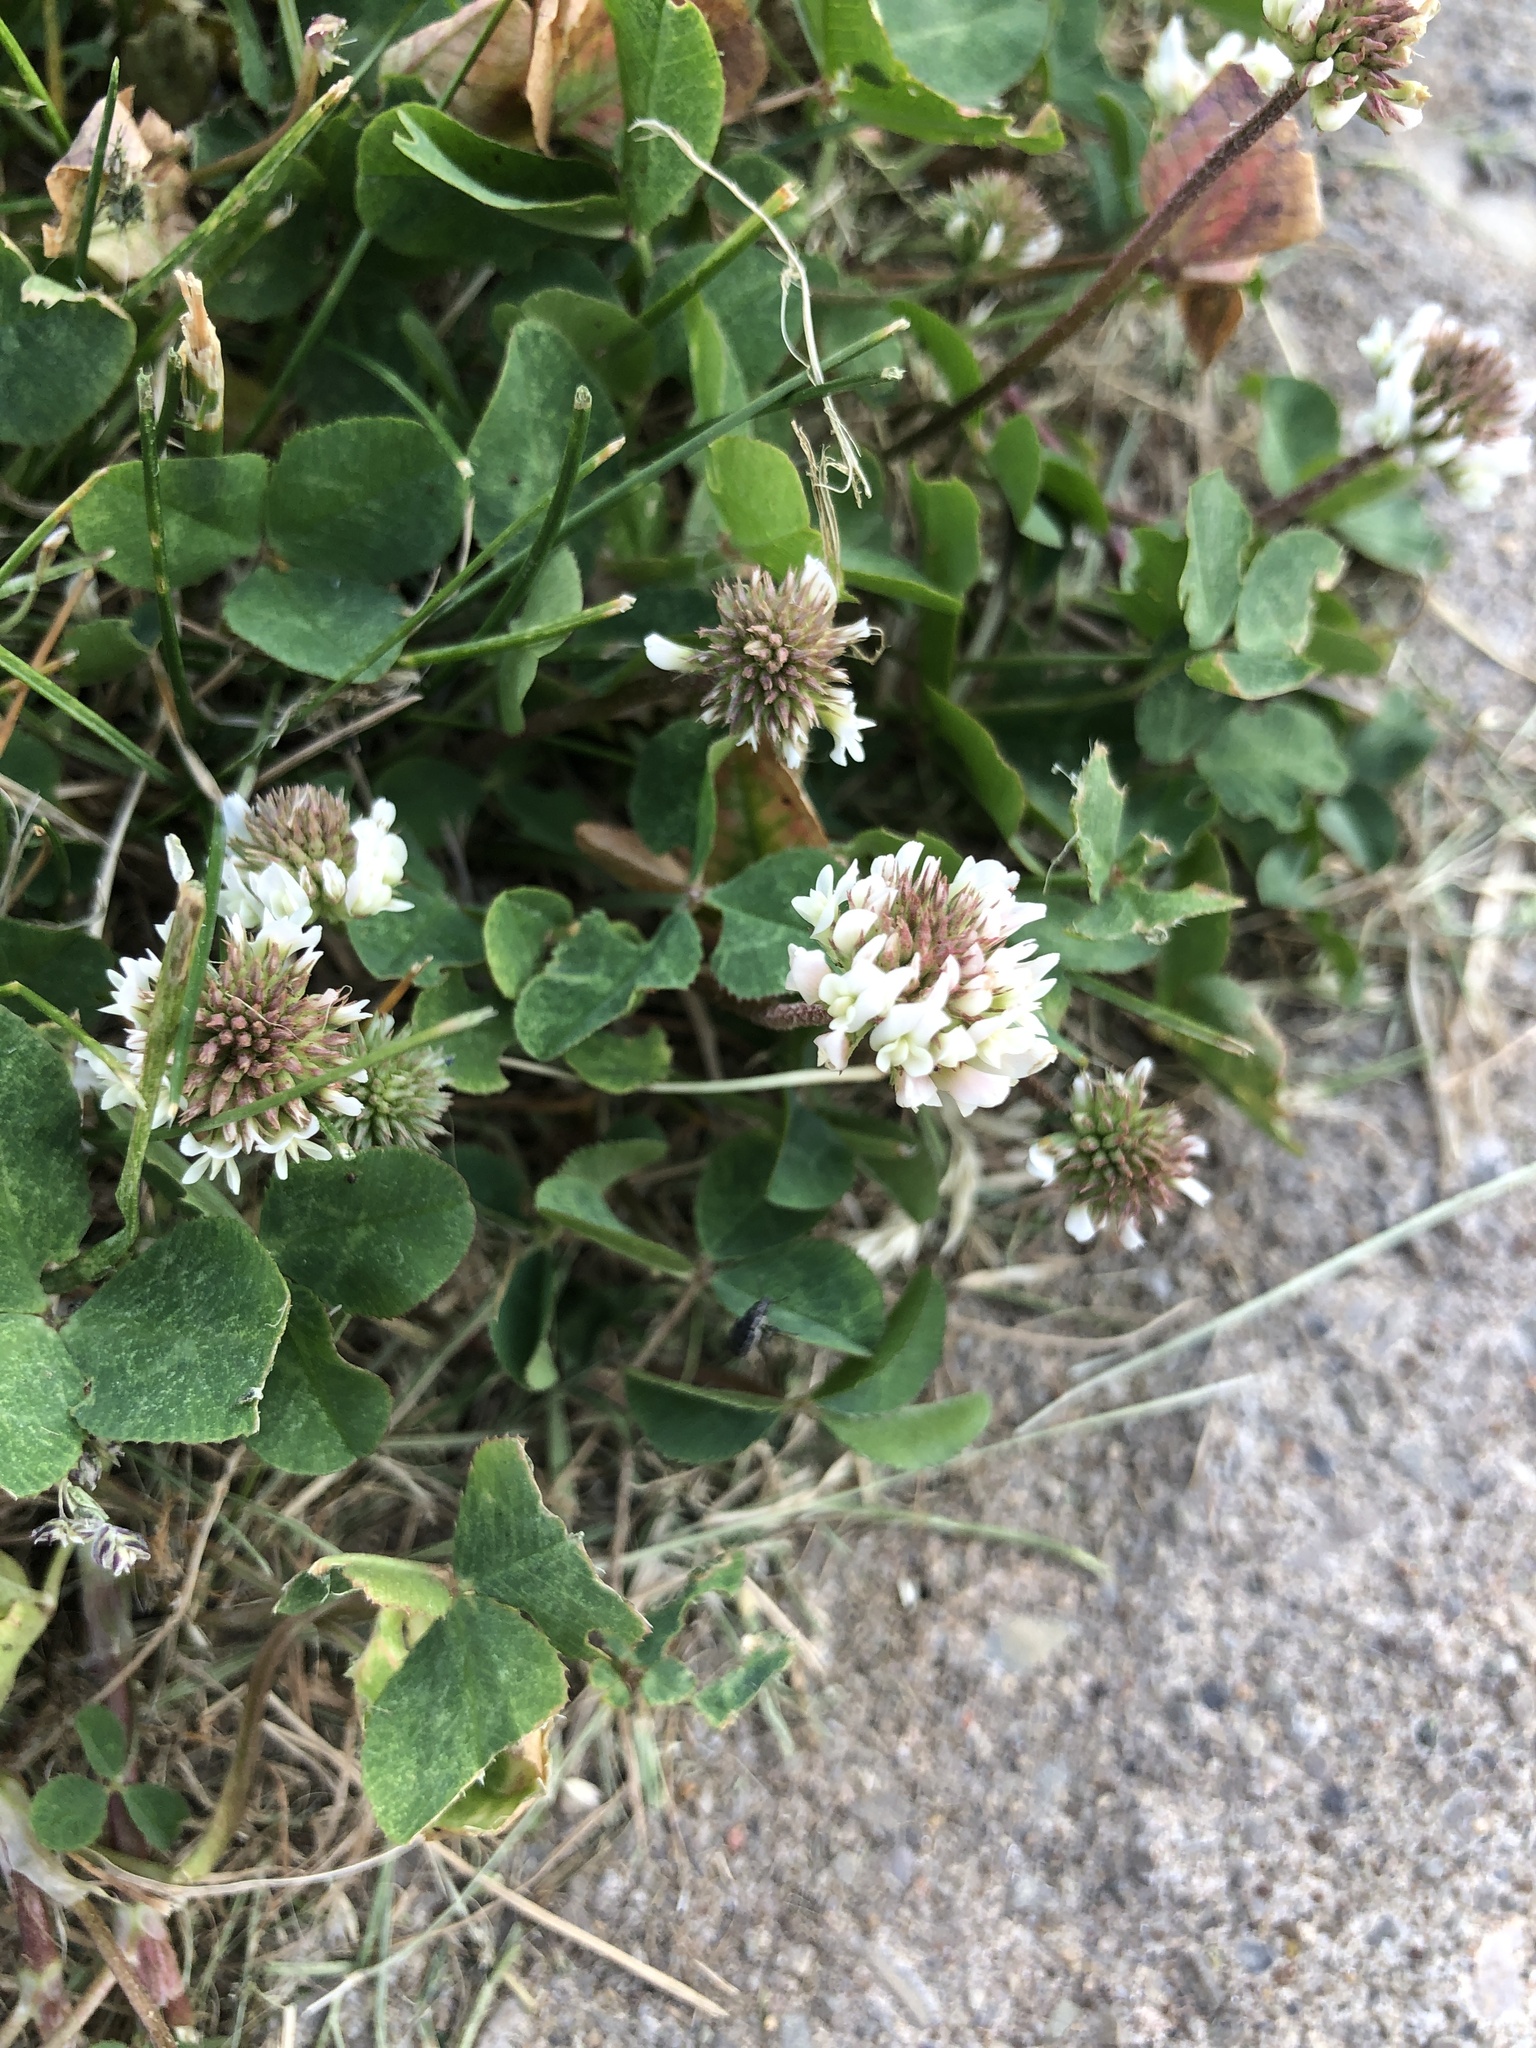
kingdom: Plantae
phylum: Tracheophyta
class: Magnoliopsida
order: Fabales
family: Fabaceae
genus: Trifolium
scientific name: Trifolium repens
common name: White clover
